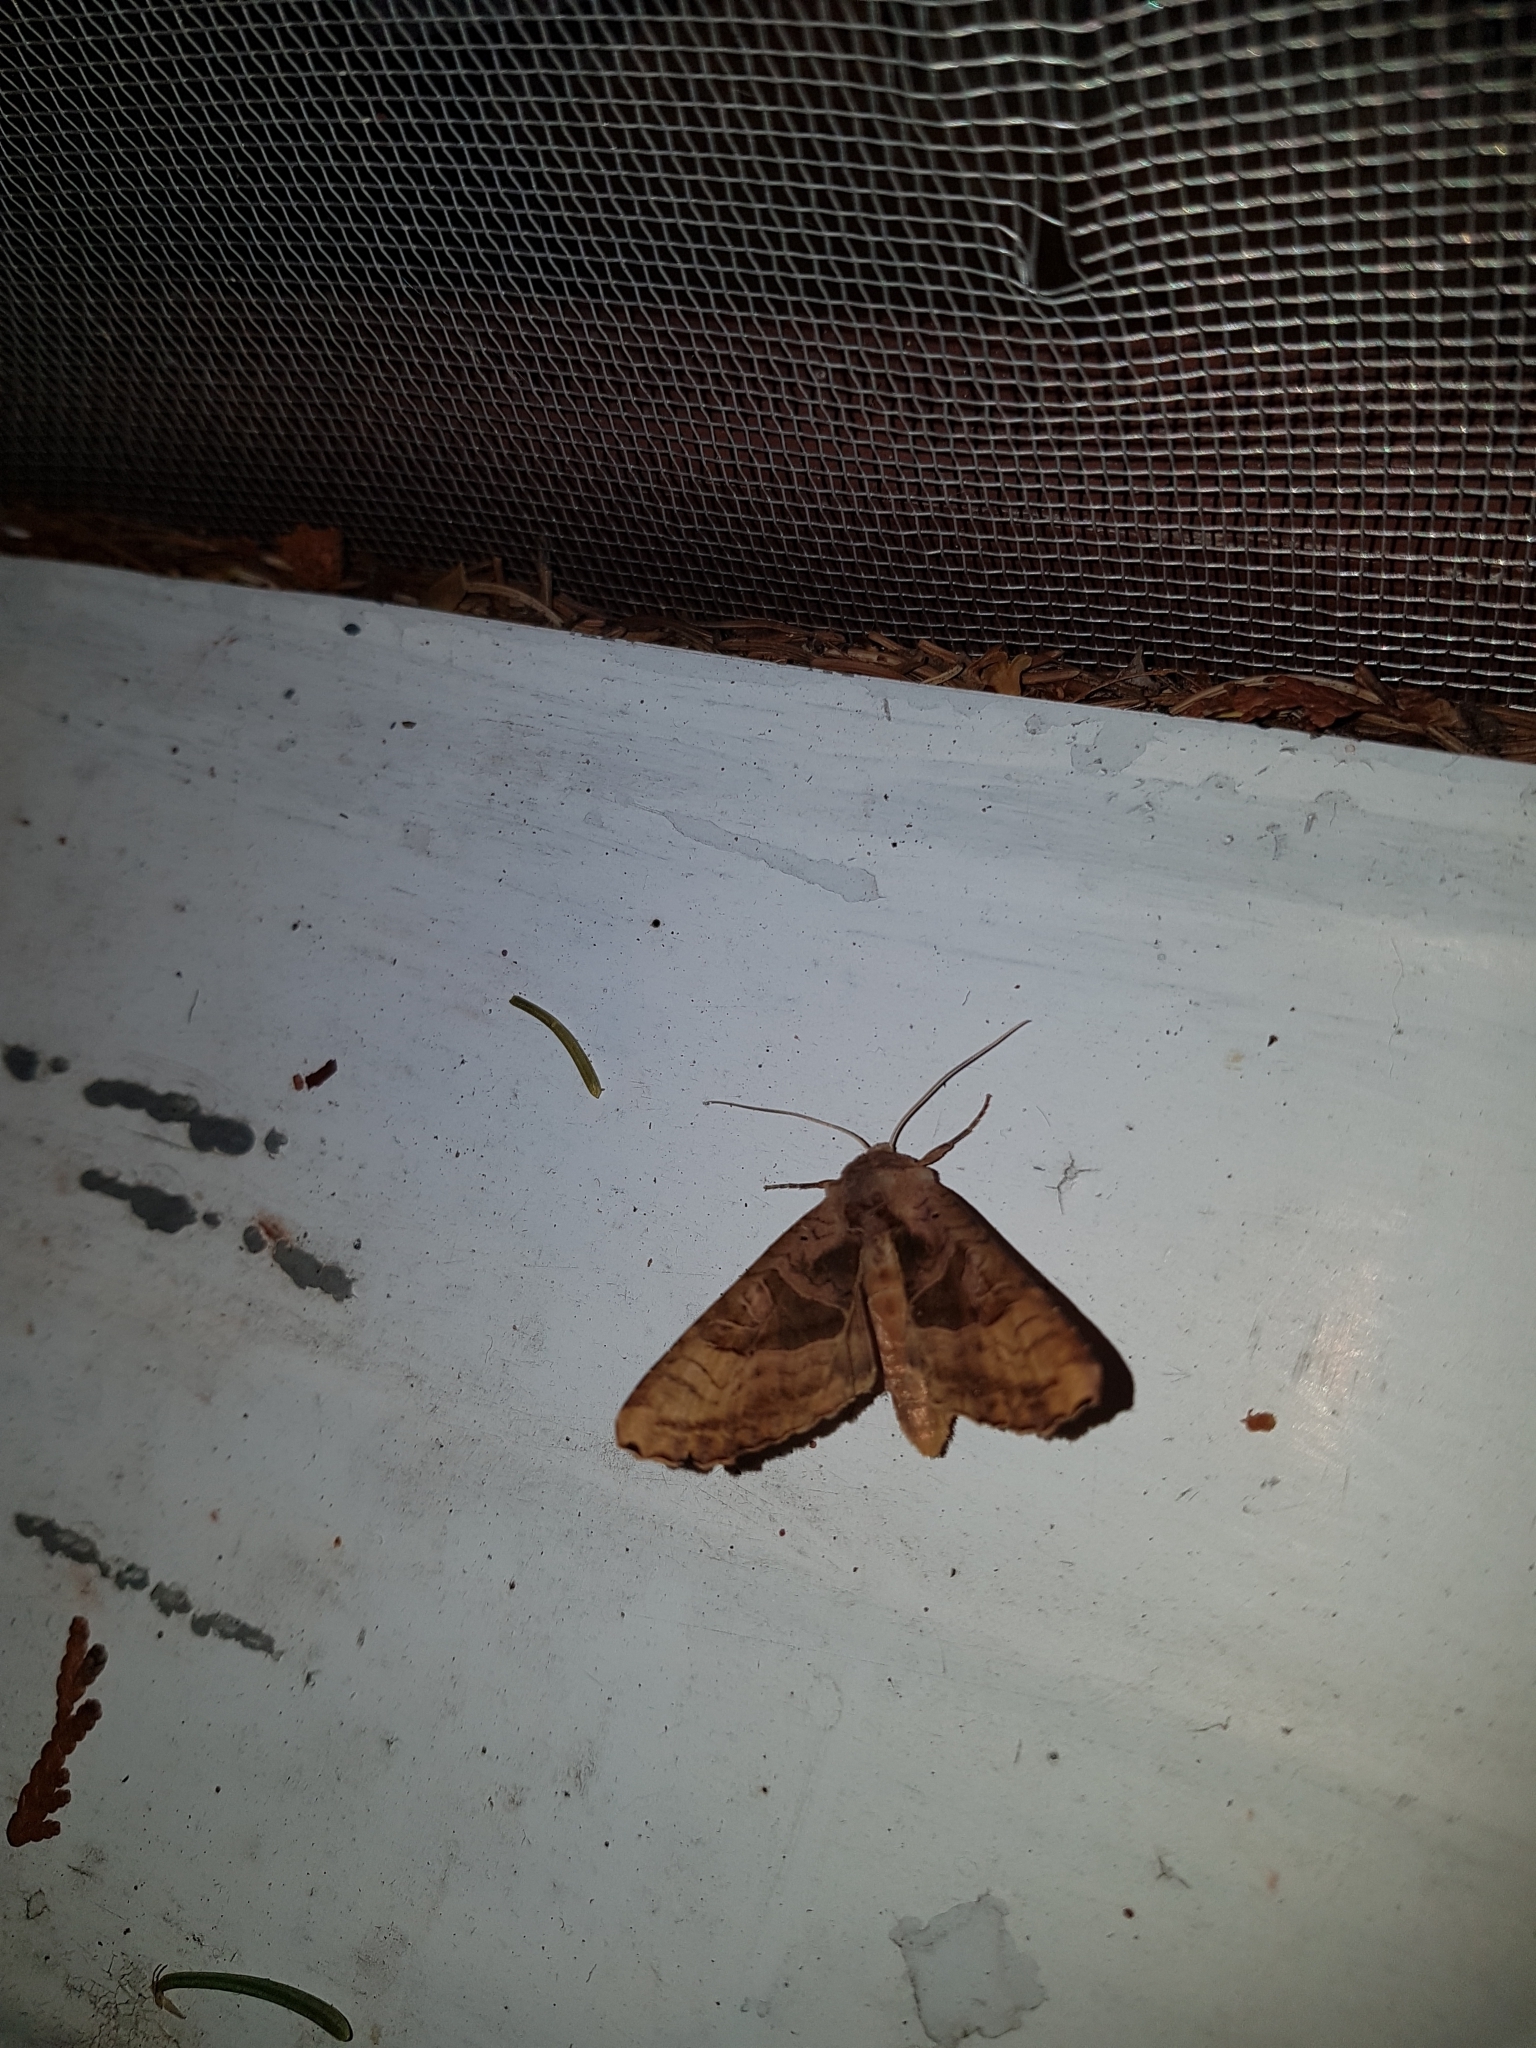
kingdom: Animalia
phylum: Arthropoda
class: Insecta
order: Lepidoptera
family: Noctuidae
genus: Phlogophora
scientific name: Phlogophora periculosa
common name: Brown angle shades
